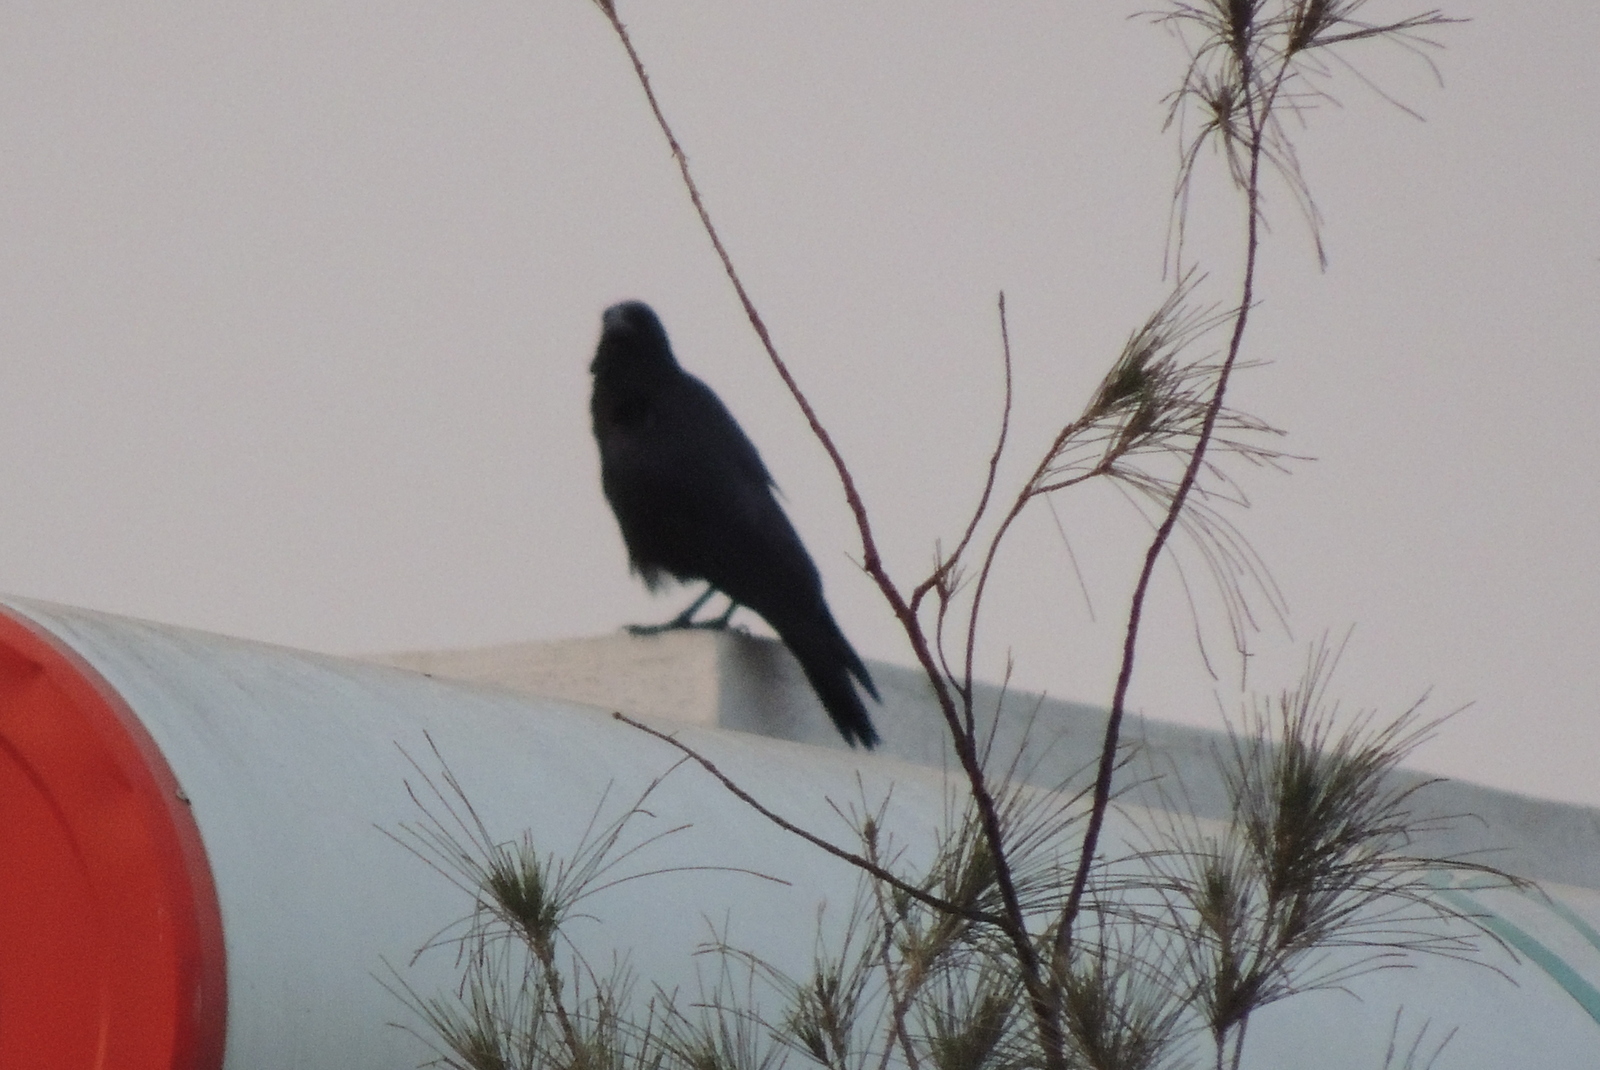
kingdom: Animalia
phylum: Chordata
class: Aves
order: Passeriformes
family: Corvidae
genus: Corvus
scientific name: Corvus macrorhynchos
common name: Large-billed crow
